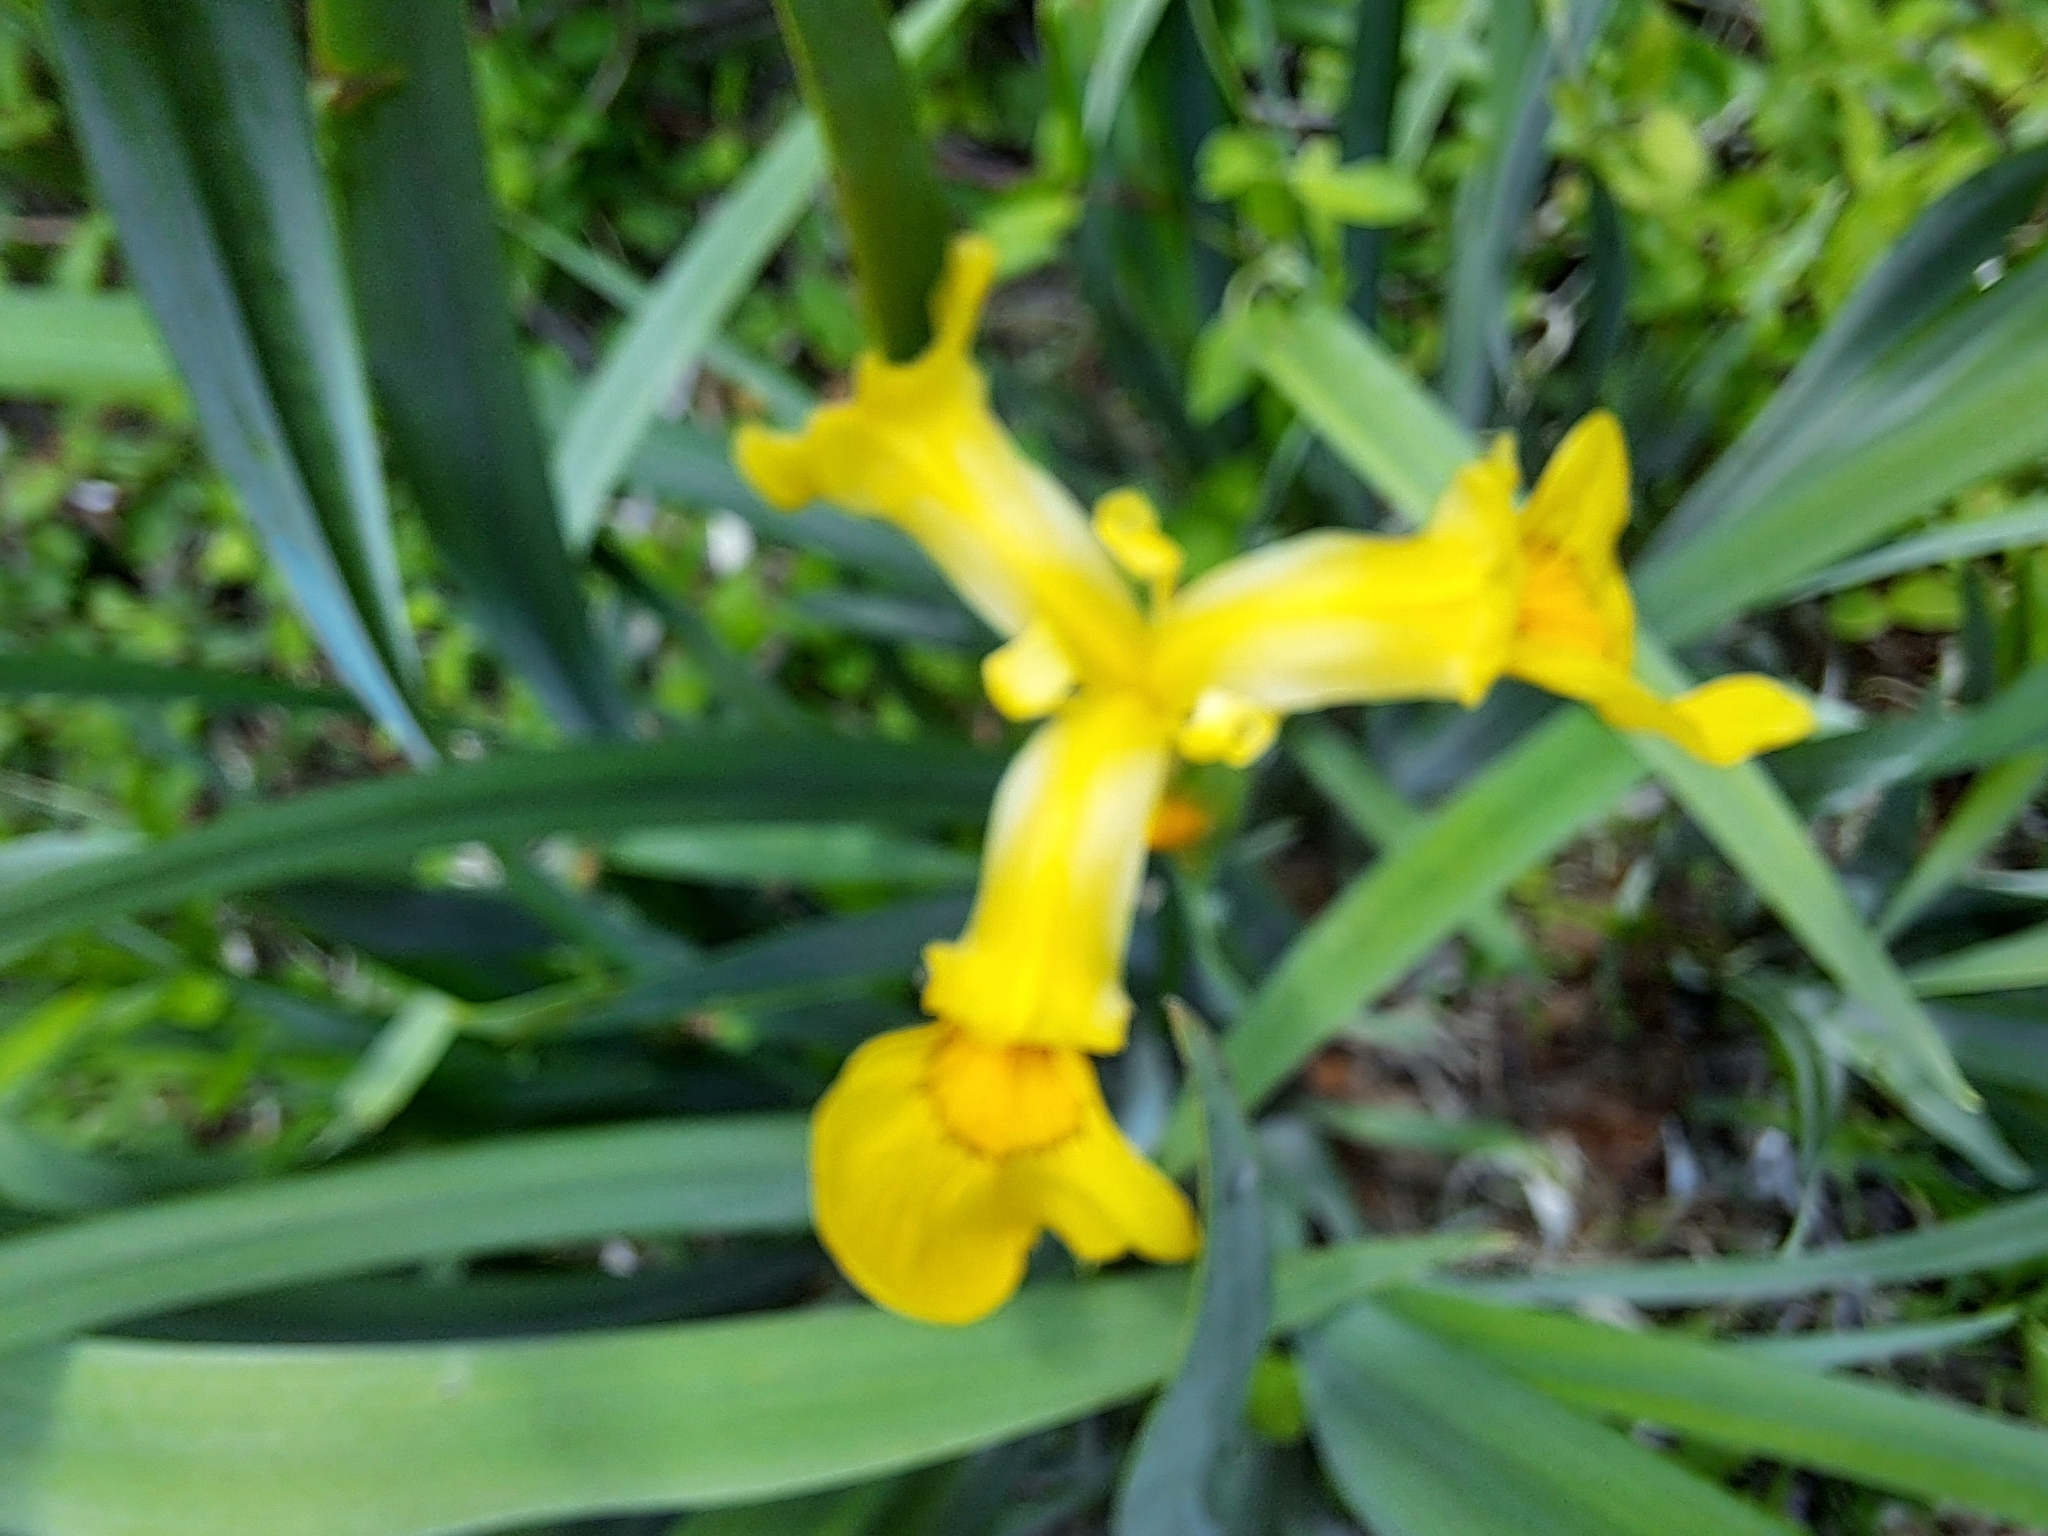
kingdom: Plantae
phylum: Tracheophyta
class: Liliopsida
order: Asparagales
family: Iridaceae
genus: Iris
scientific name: Iris pseudacorus
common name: Yellow flag
